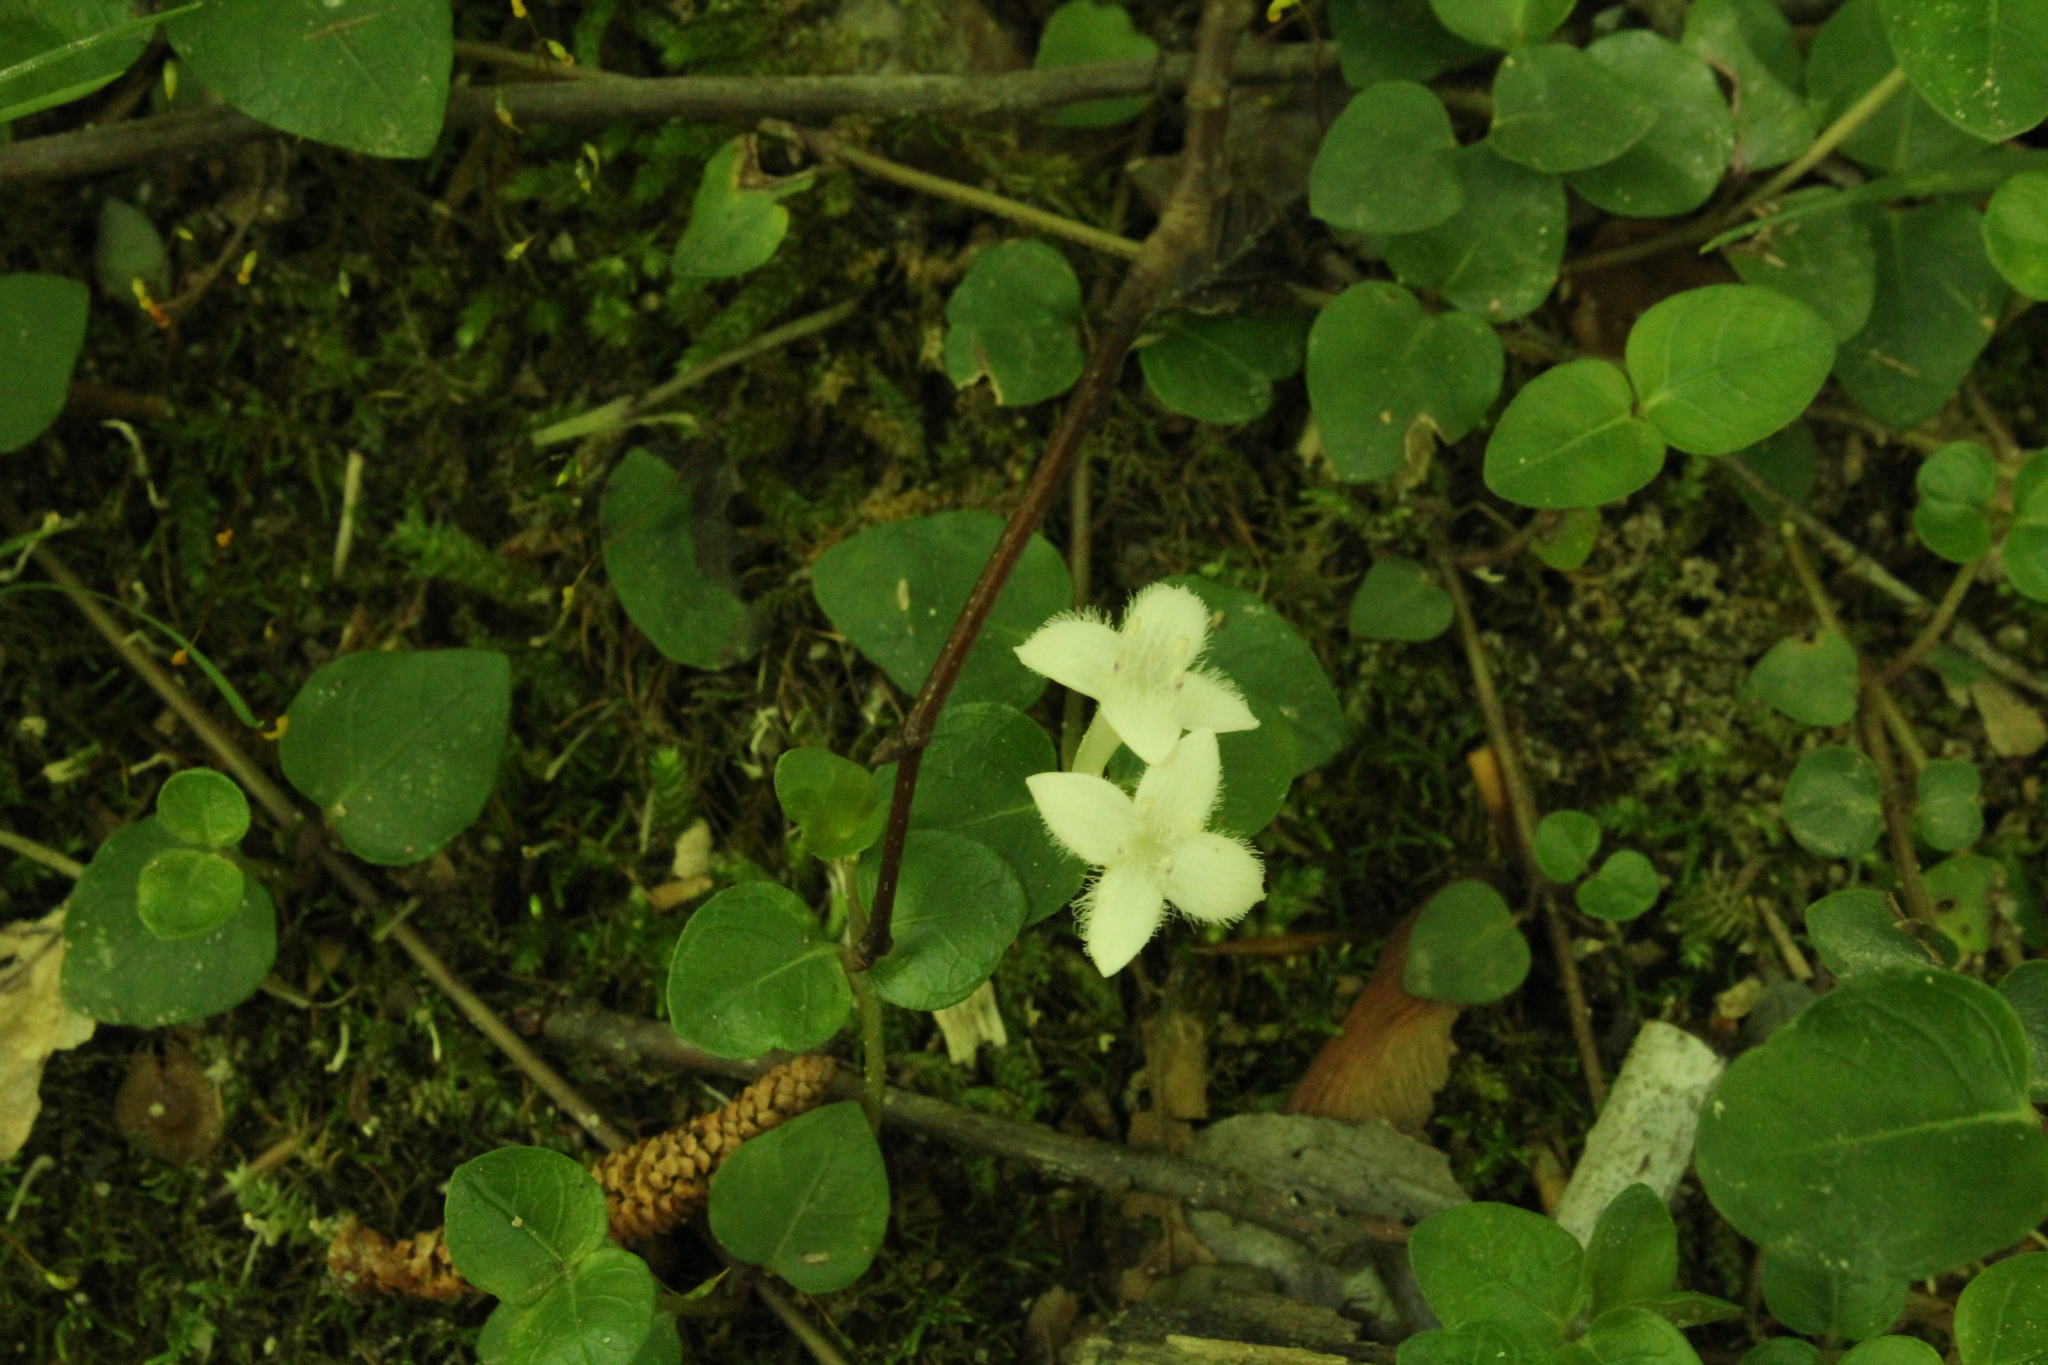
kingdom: Plantae
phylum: Tracheophyta
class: Magnoliopsida
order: Gentianales
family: Rubiaceae
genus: Mitchella
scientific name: Mitchella repens
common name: Partridge-berry
